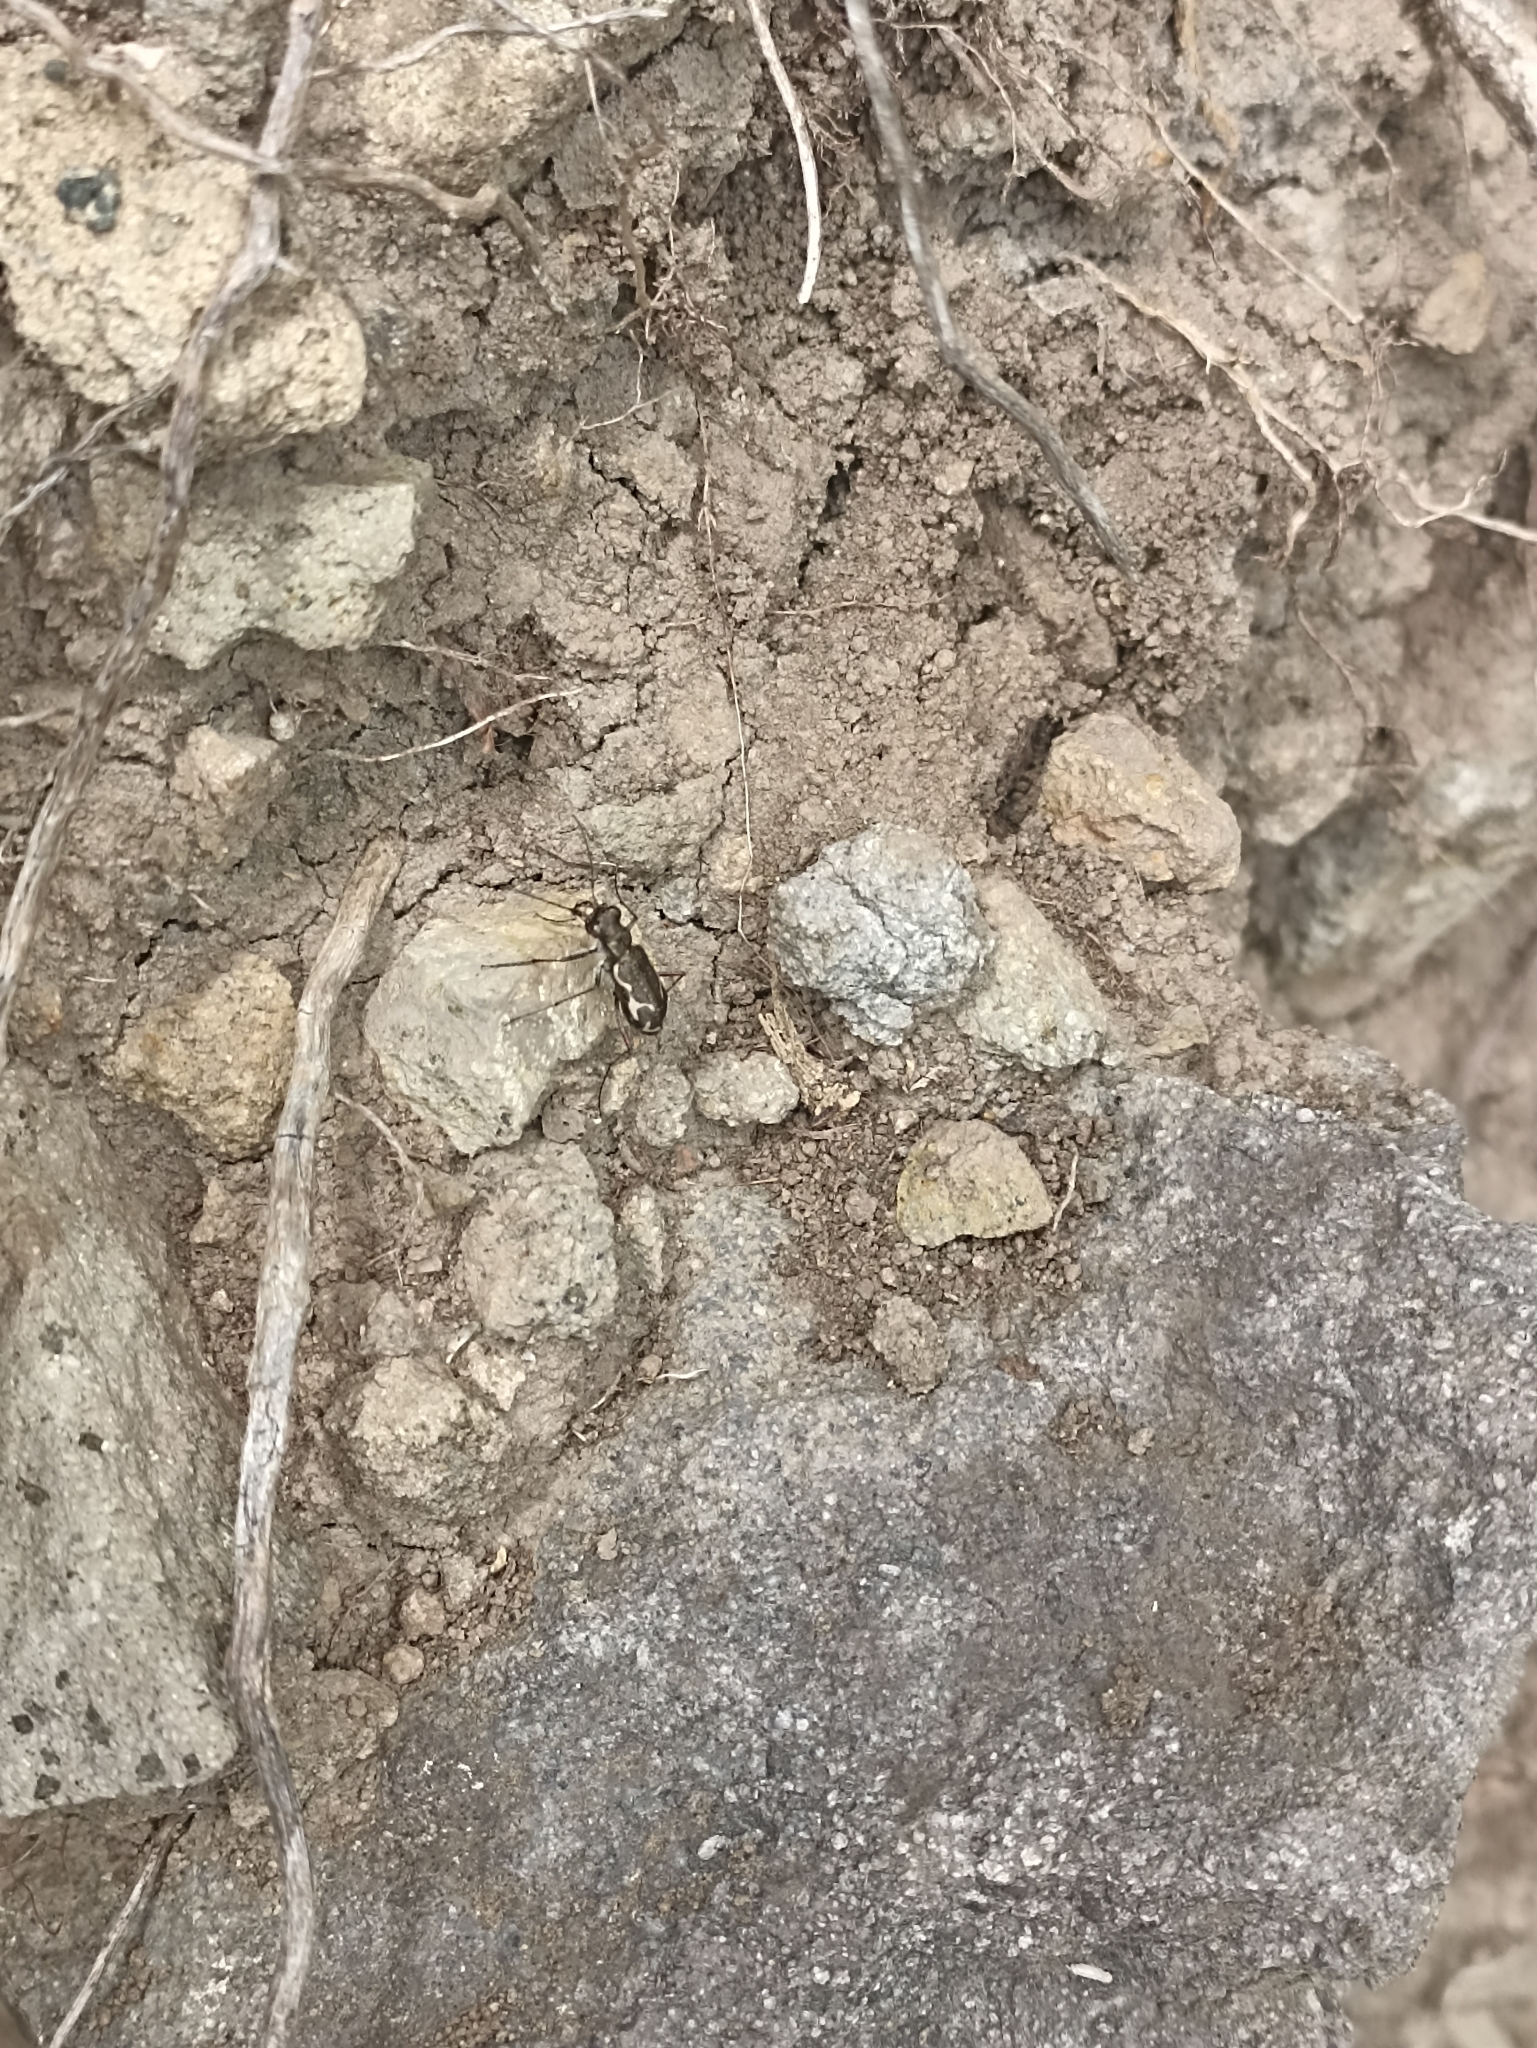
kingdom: Animalia
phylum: Arthropoda
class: Insecta
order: Coleoptera
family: Carabidae
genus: Neocicindela
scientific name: Neocicindela tuberculata
